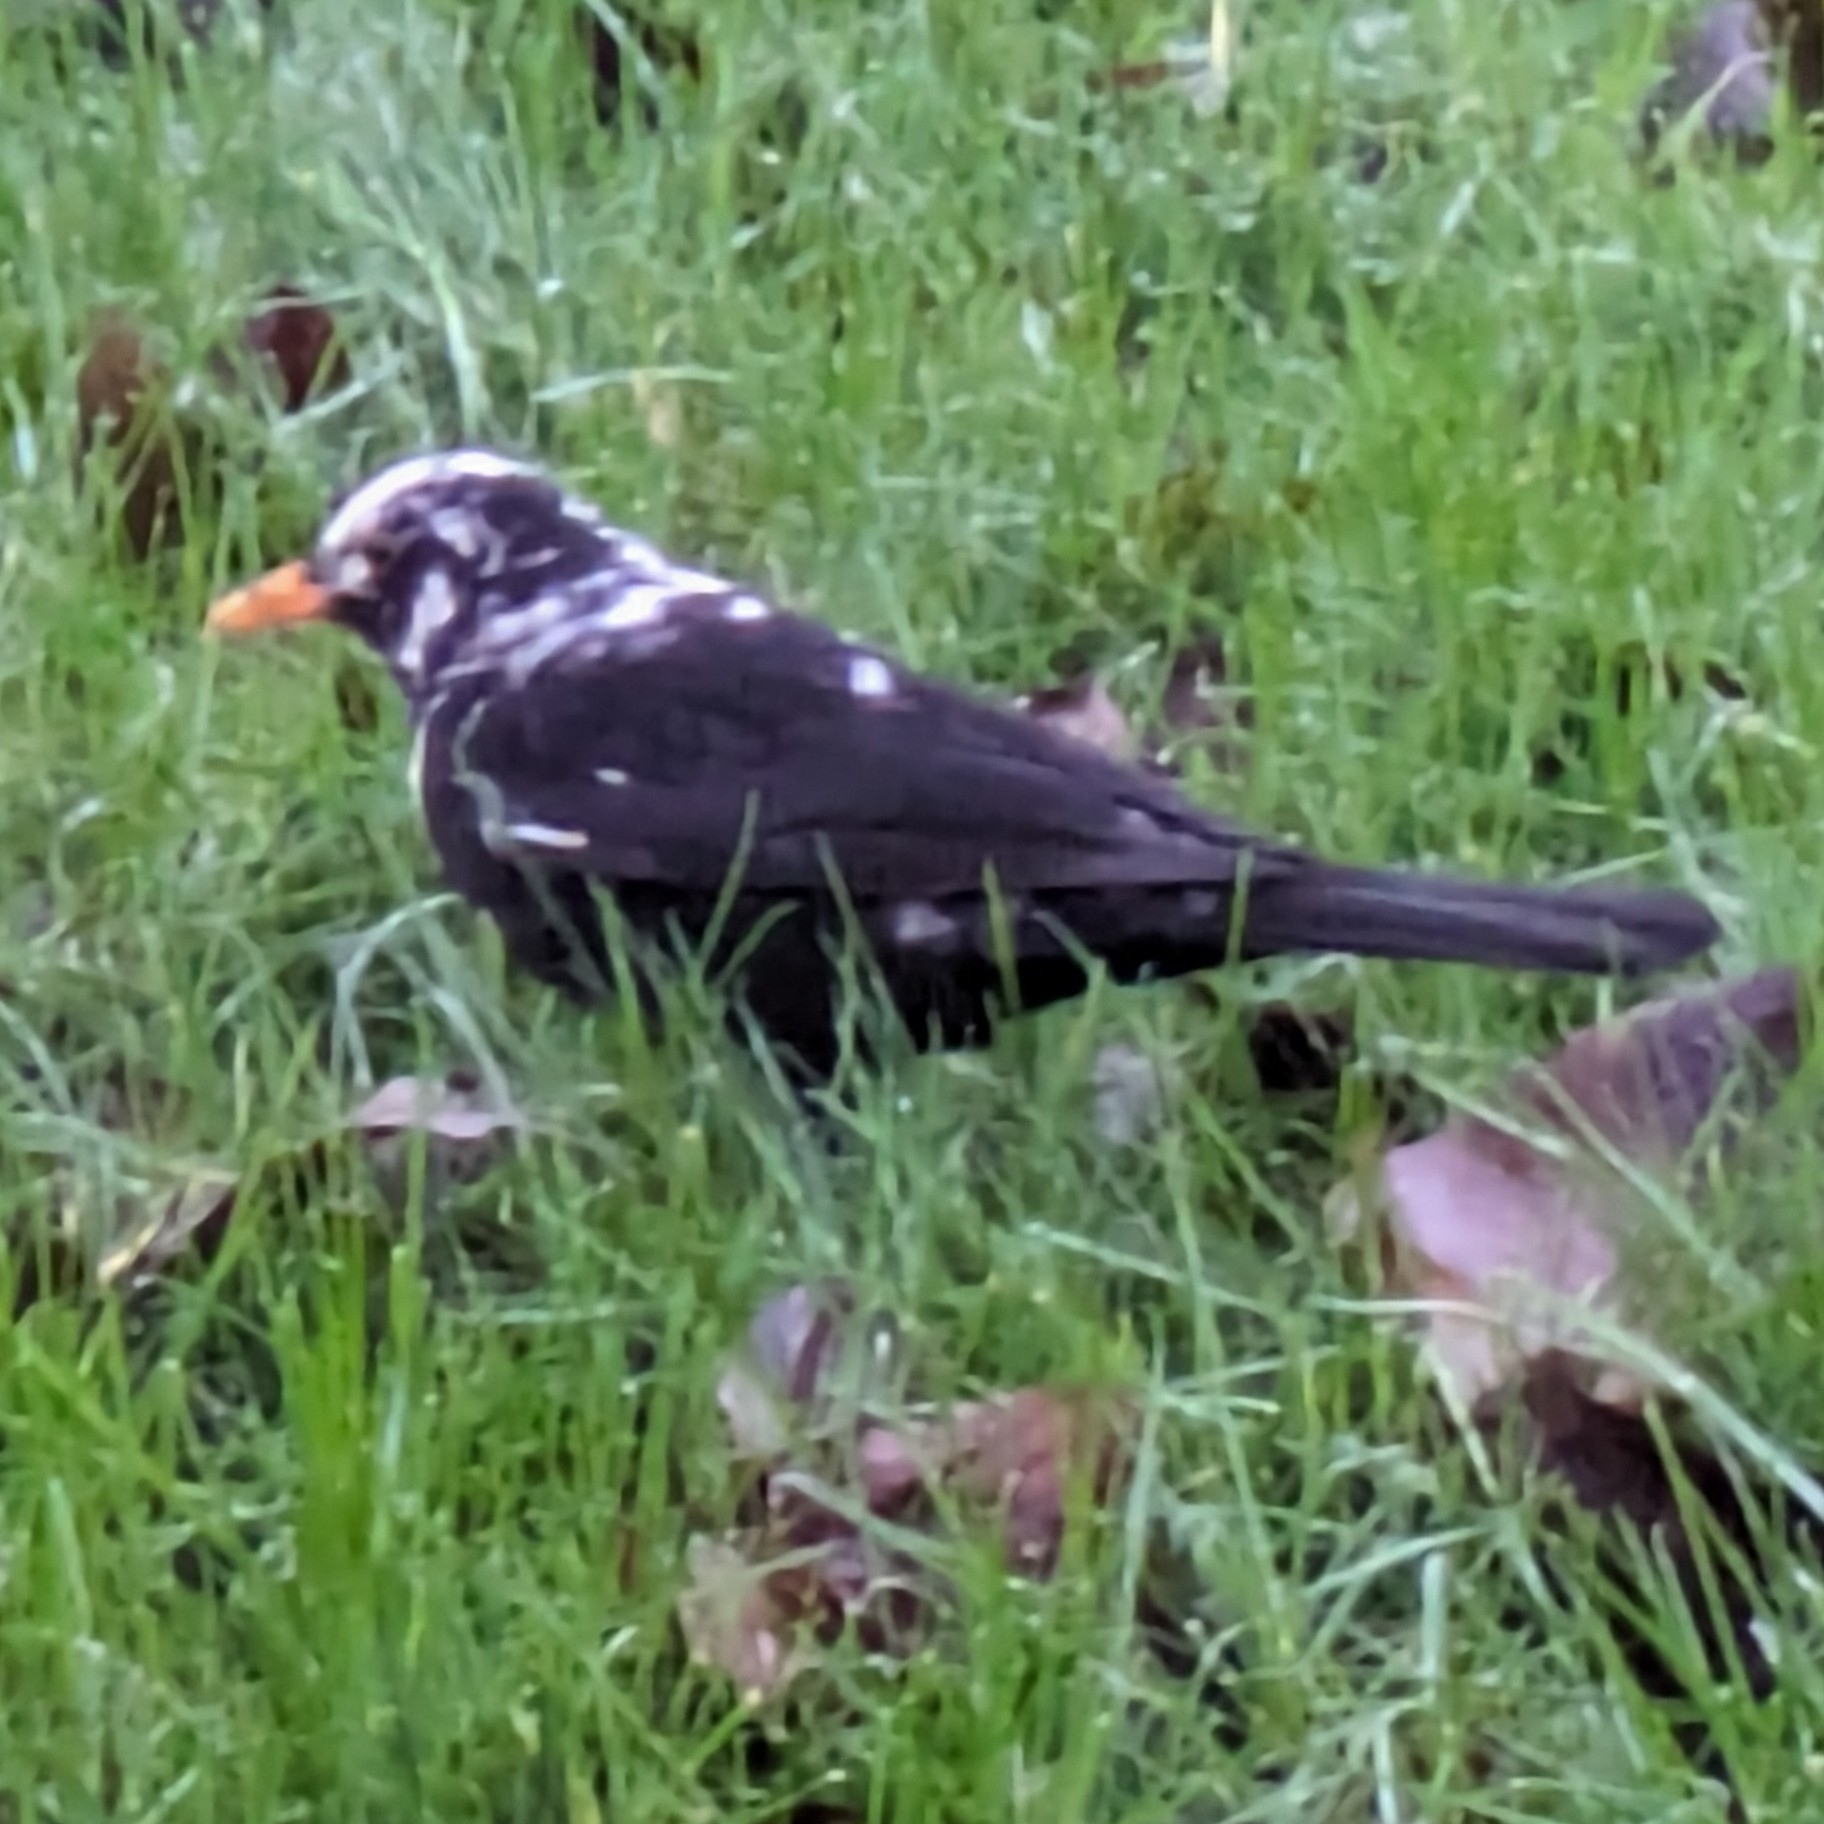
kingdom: Animalia
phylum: Chordata
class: Aves
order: Passeriformes
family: Turdidae
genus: Turdus
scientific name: Turdus merula
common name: Common blackbird
